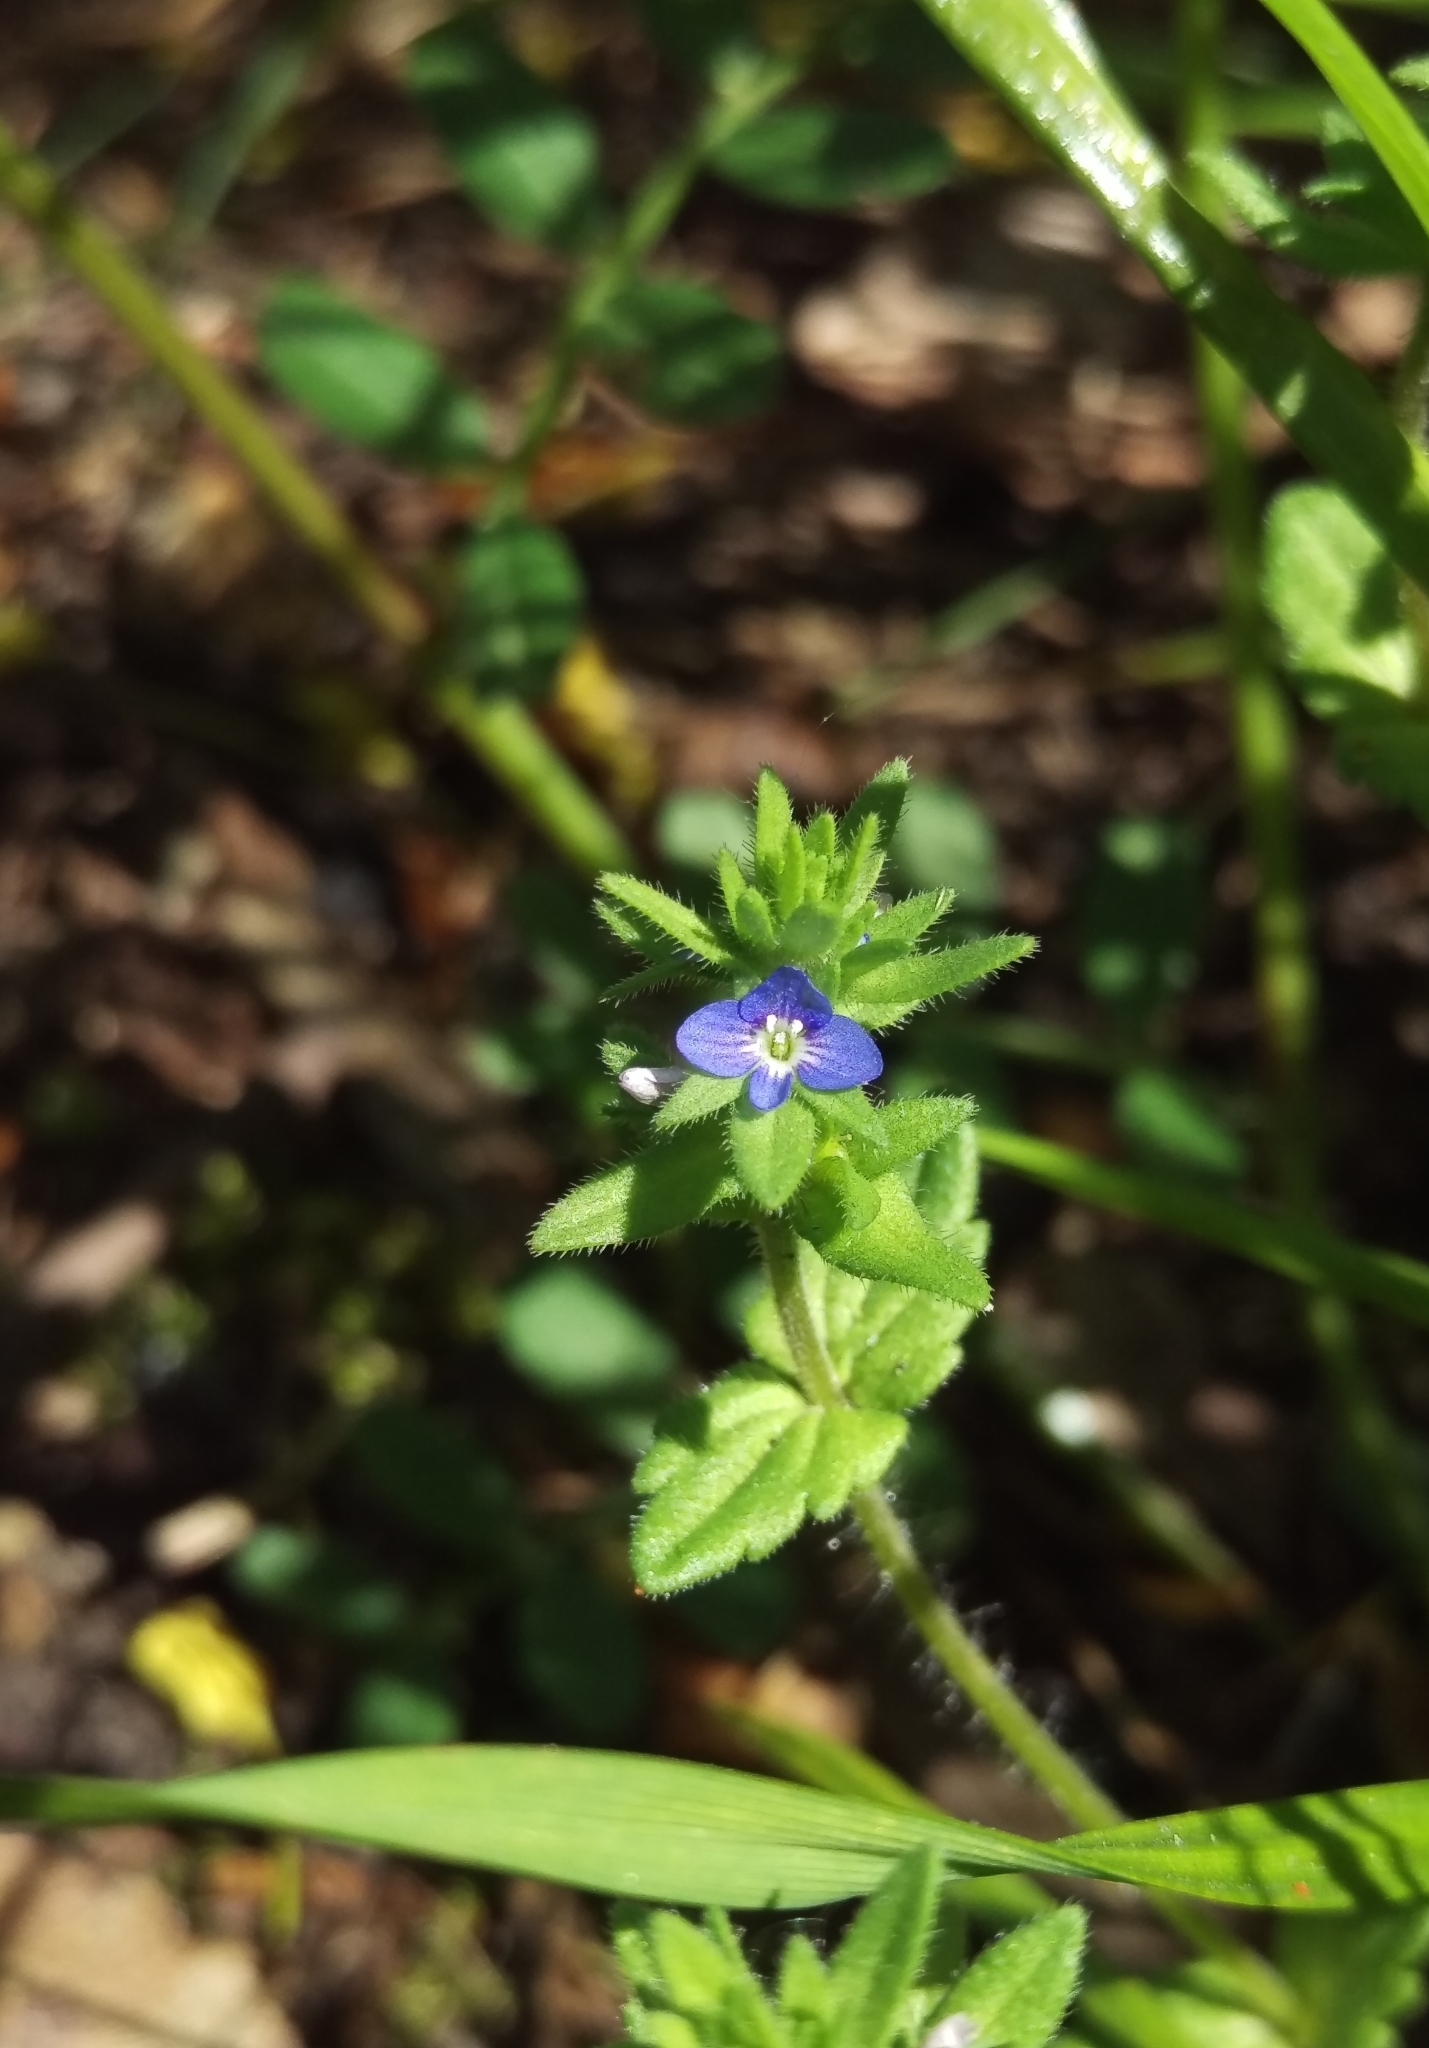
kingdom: Plantae
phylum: Tracheophyta
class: Magnoliopsida
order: Lamiales
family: Plantaginaceae
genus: Veronica
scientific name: Veronica arvensis
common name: Corn speedwell
